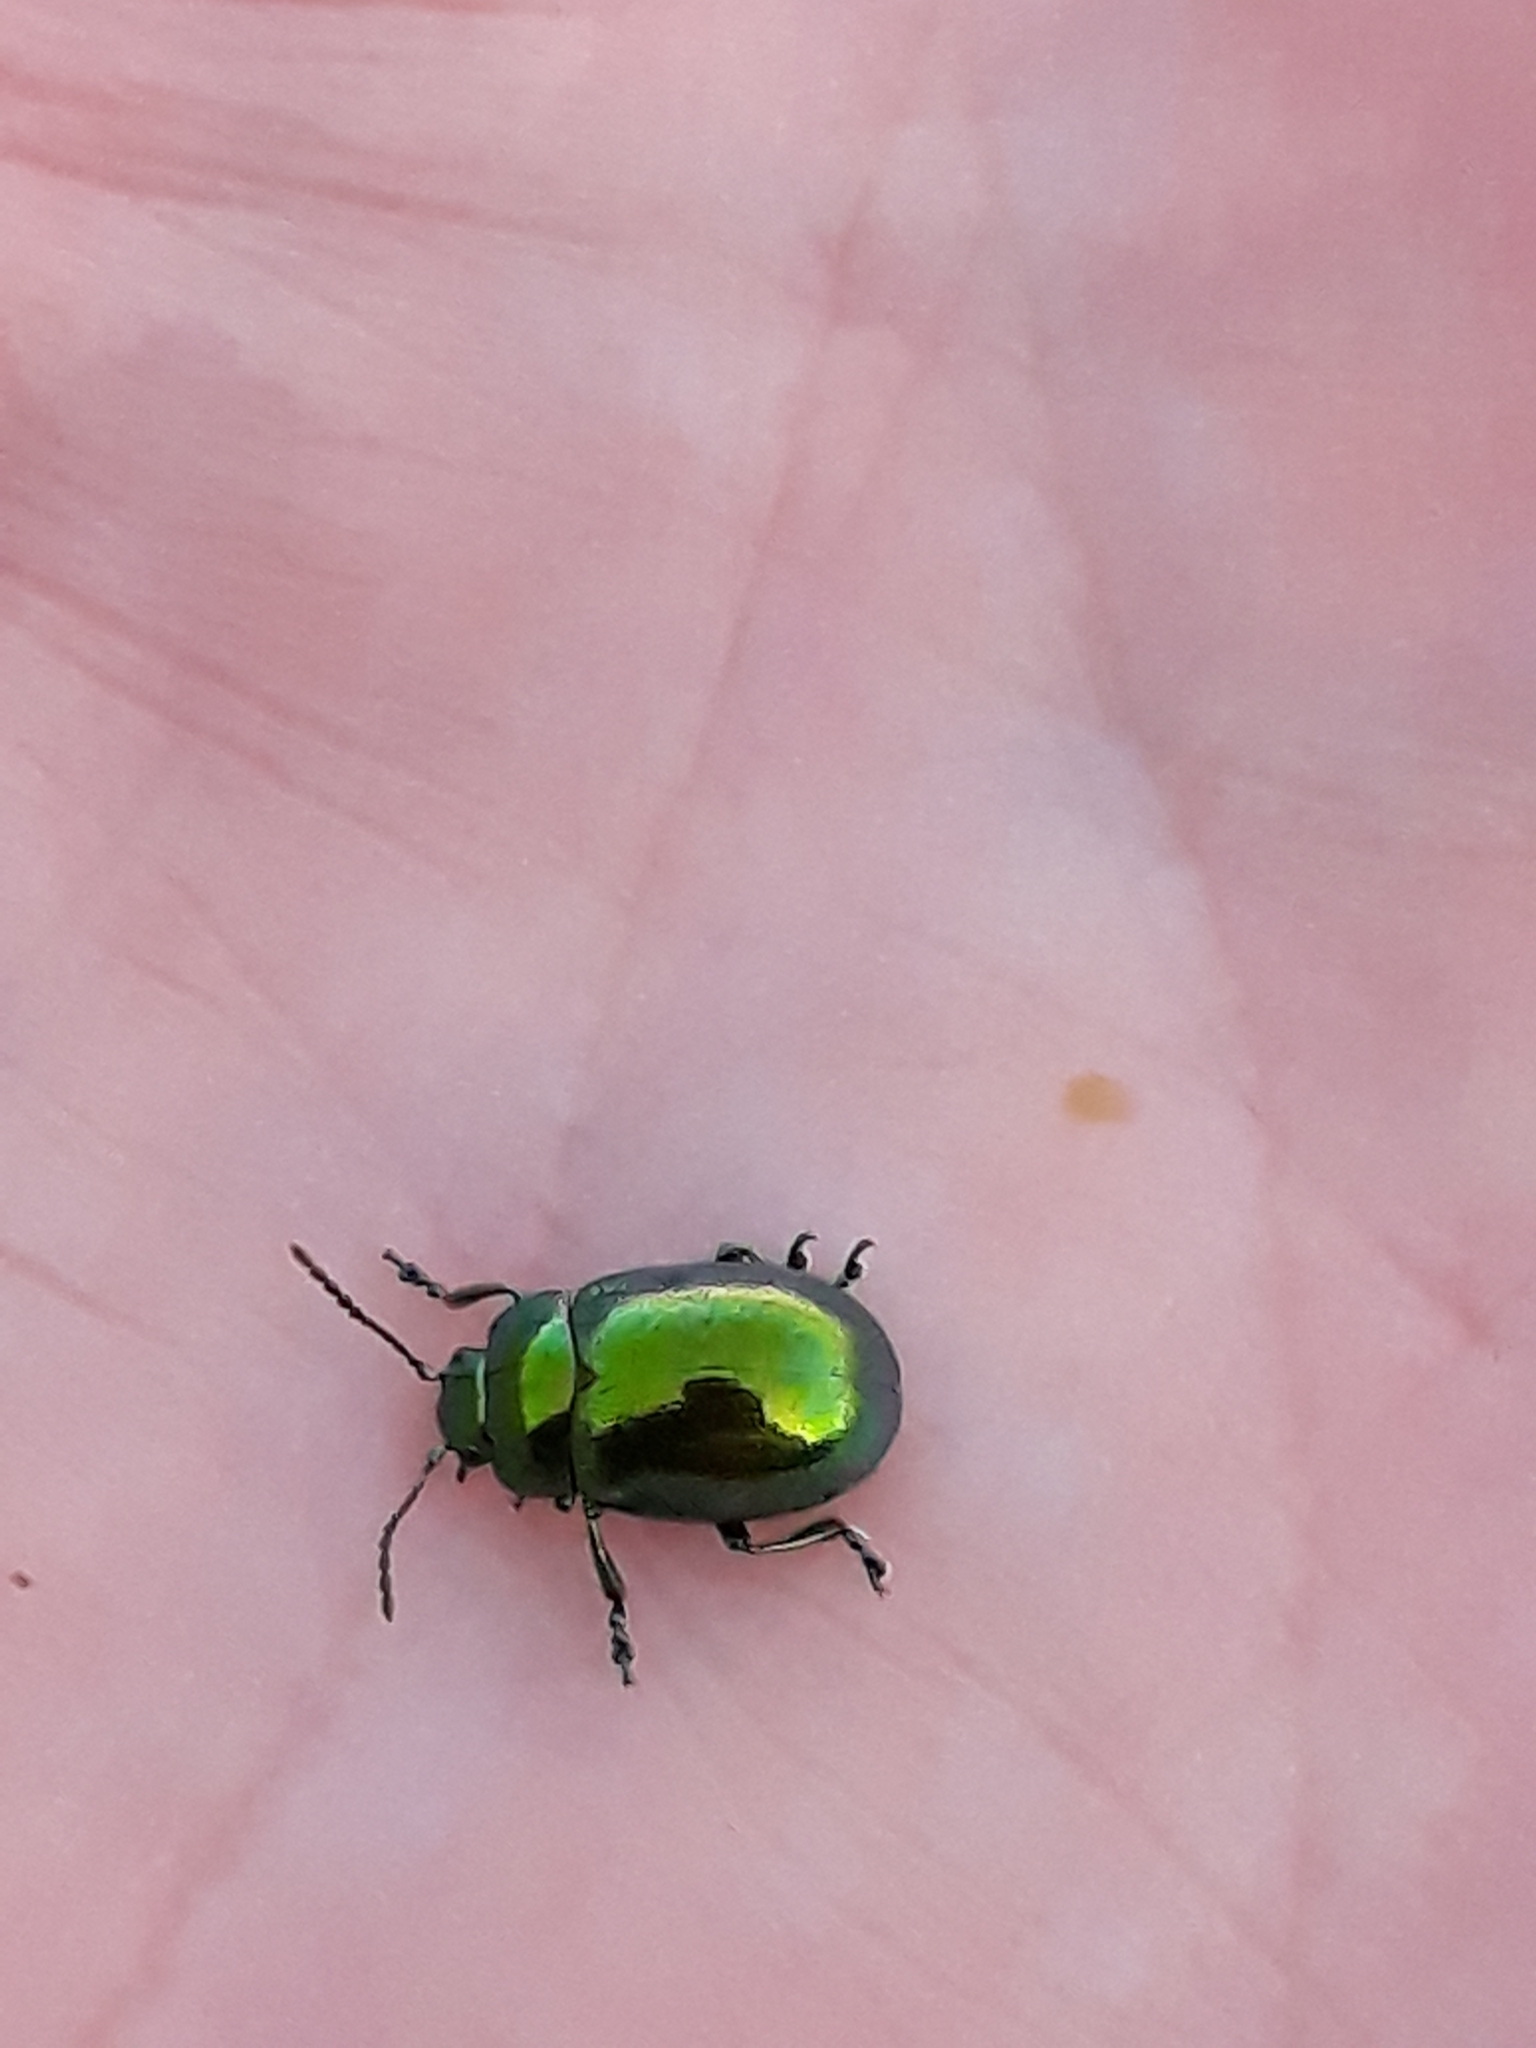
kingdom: Animalia
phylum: Arthropoda
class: Insecta
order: Coleoptera
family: Chrysomelidae
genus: Chrysolina
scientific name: Chrysolina viridana
